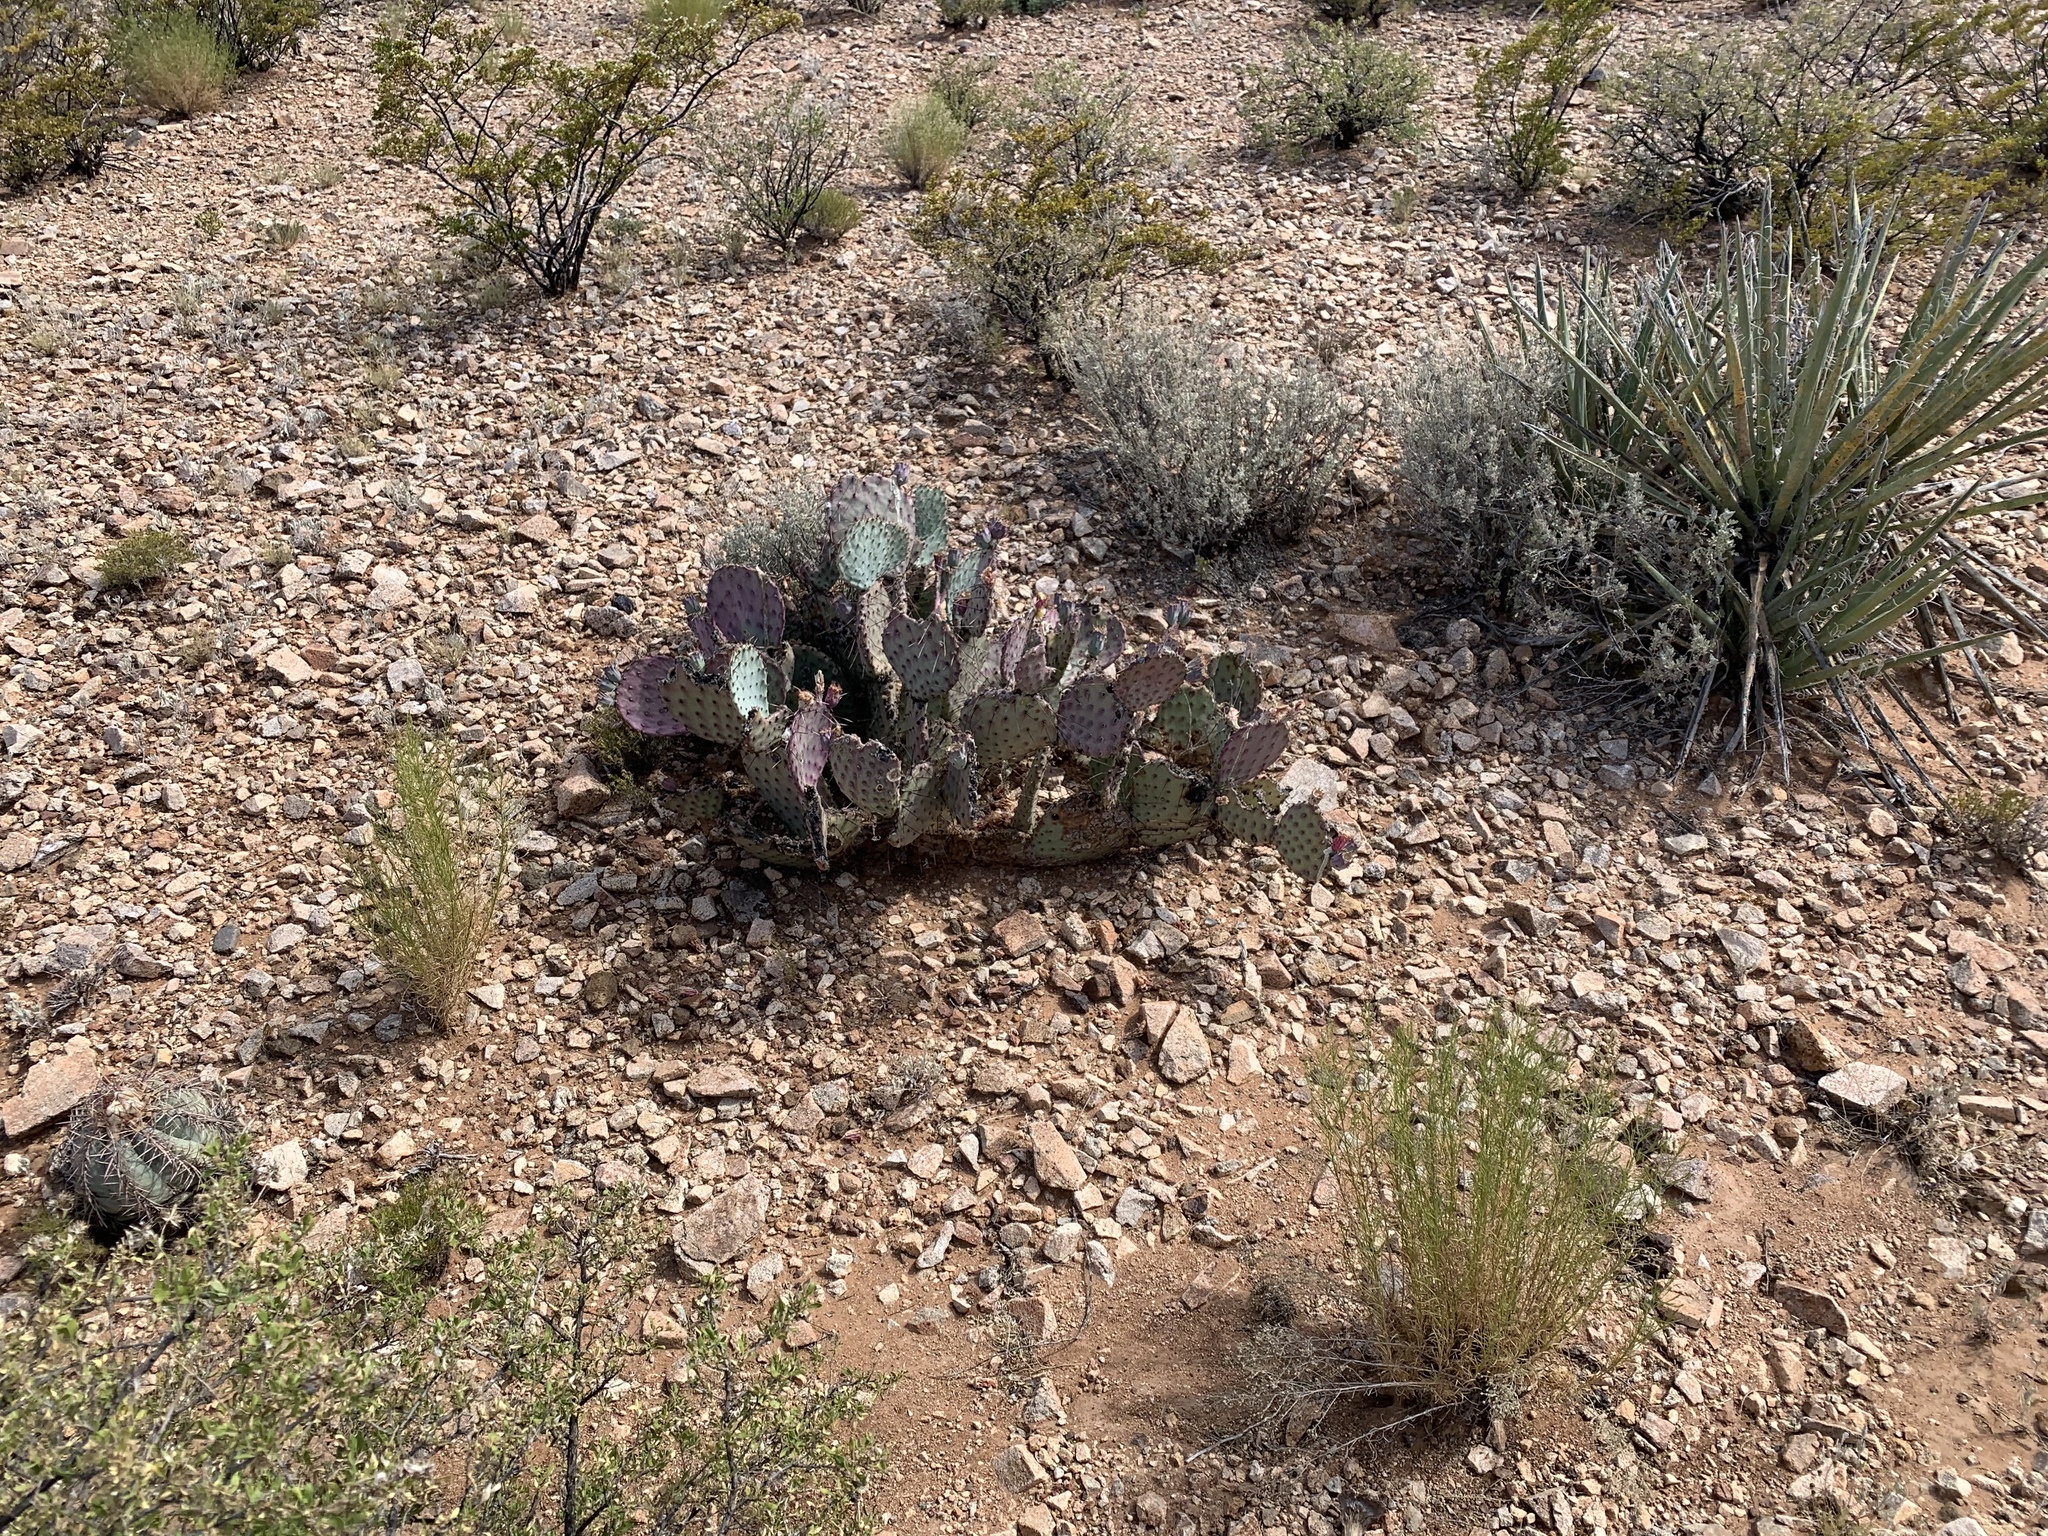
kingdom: Plantae
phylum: Tracheophyta
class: Magnoliopsida
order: Caryophyllales
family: Cactaceae
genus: Opuntia
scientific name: Opuntia macrocentra
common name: Purple prickly-pear
